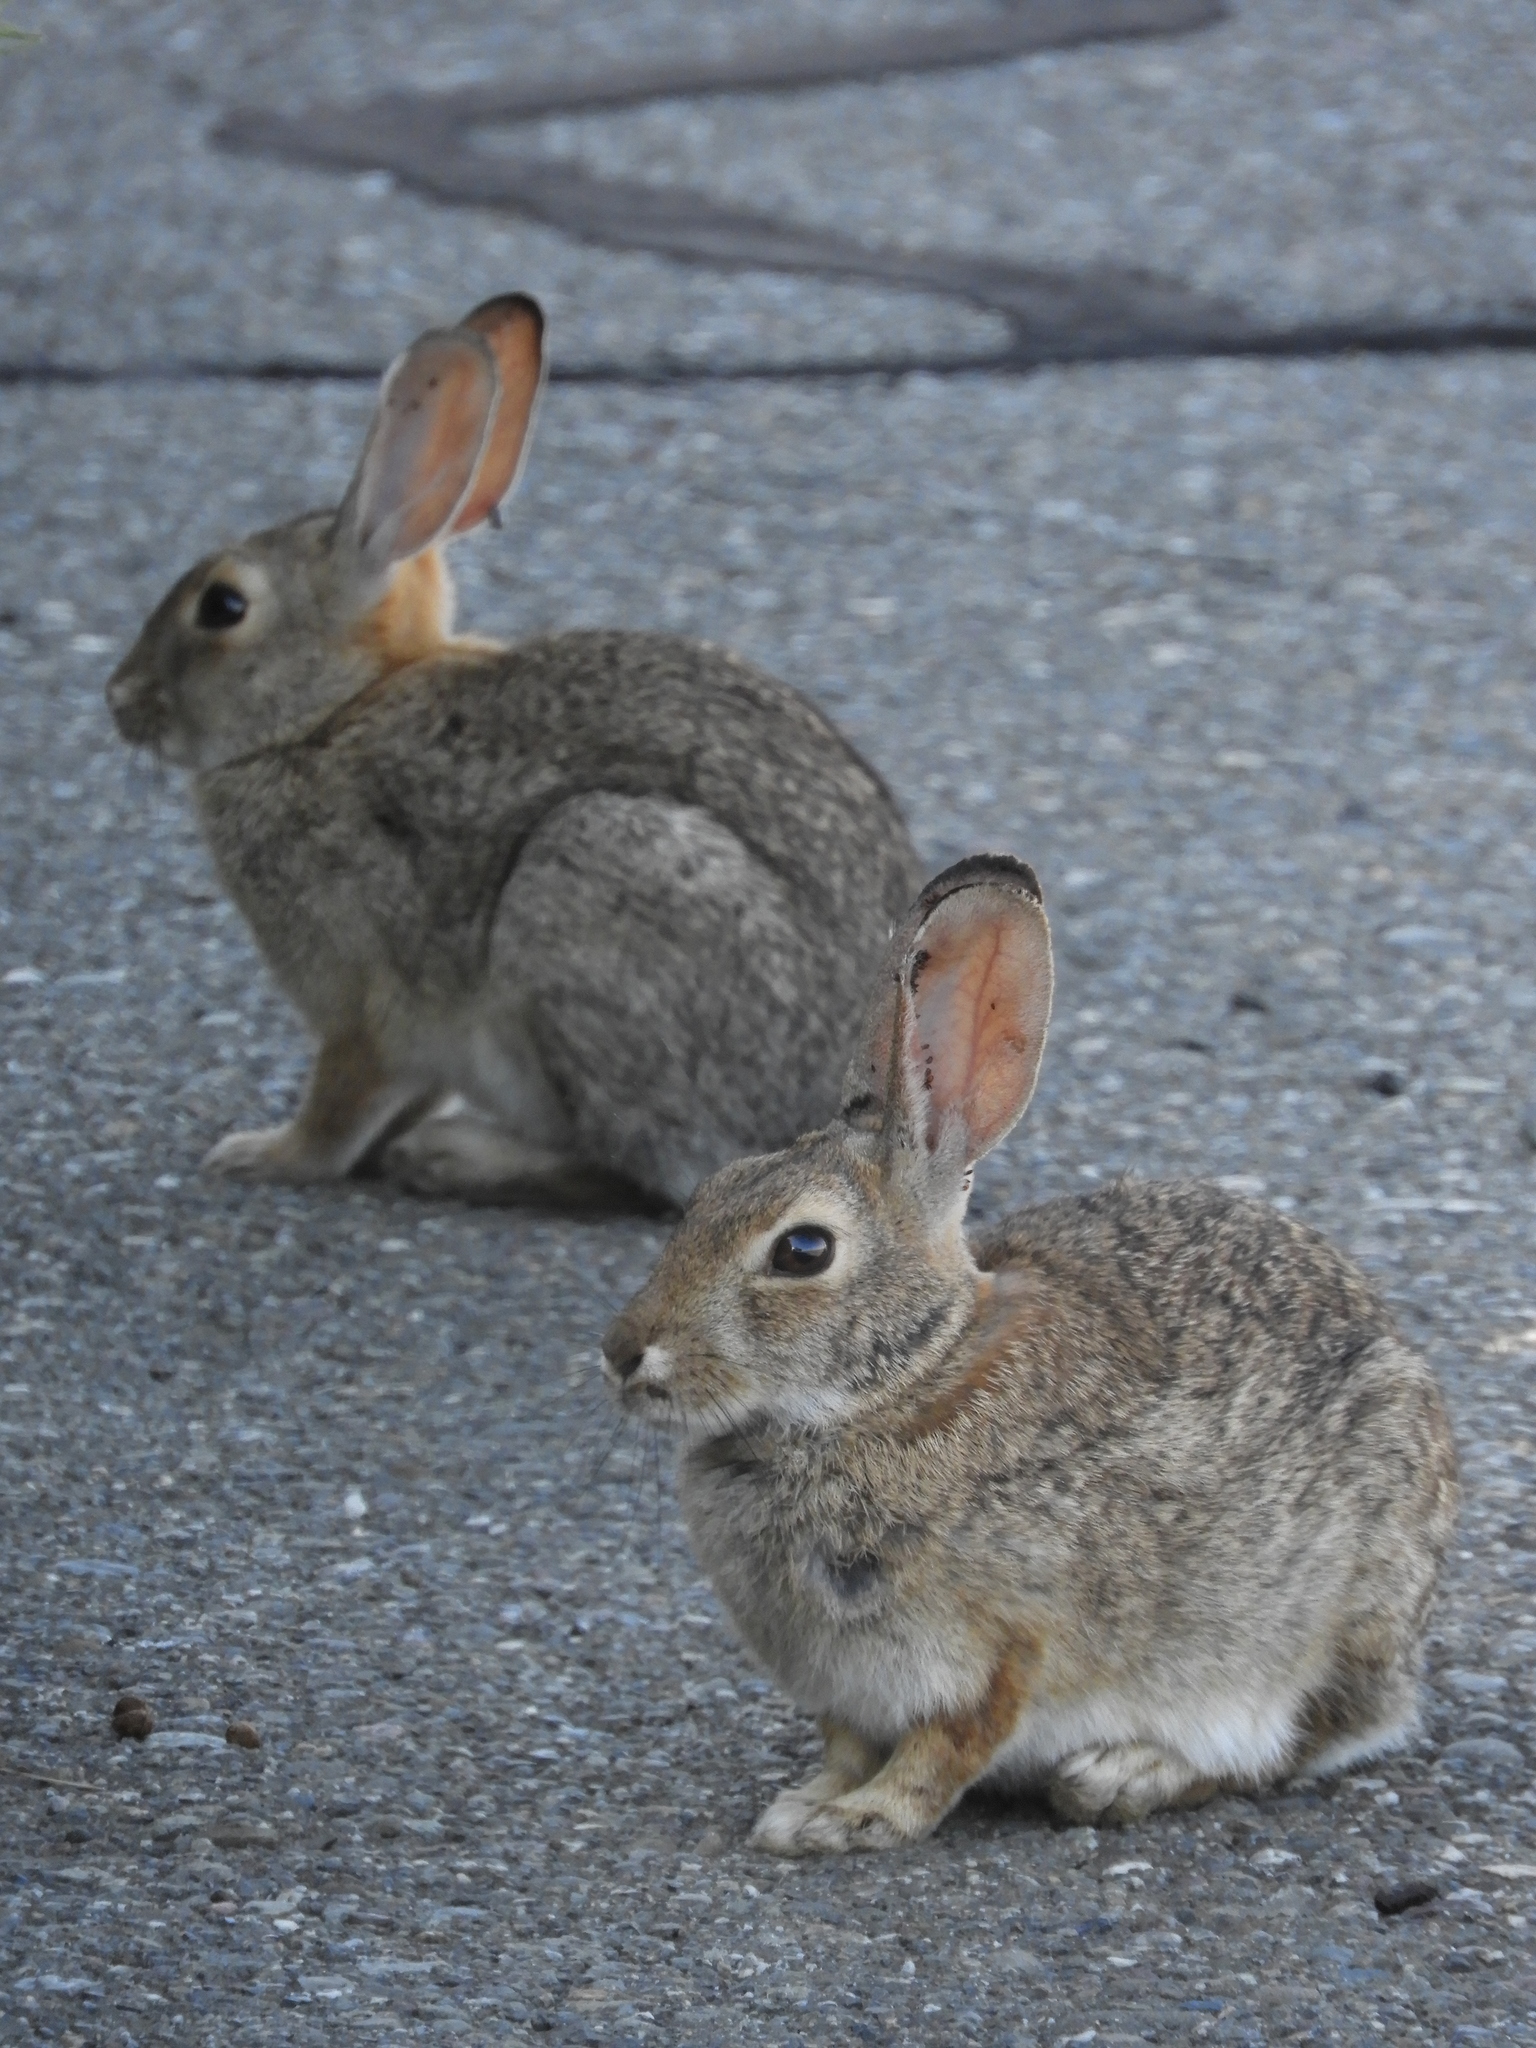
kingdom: Animalia
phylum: Chordata
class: Mammalia
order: Lagomorpha
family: Leporidae
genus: Sylvilagus
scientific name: Sylvilagus audubonii
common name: Desert cottontail
